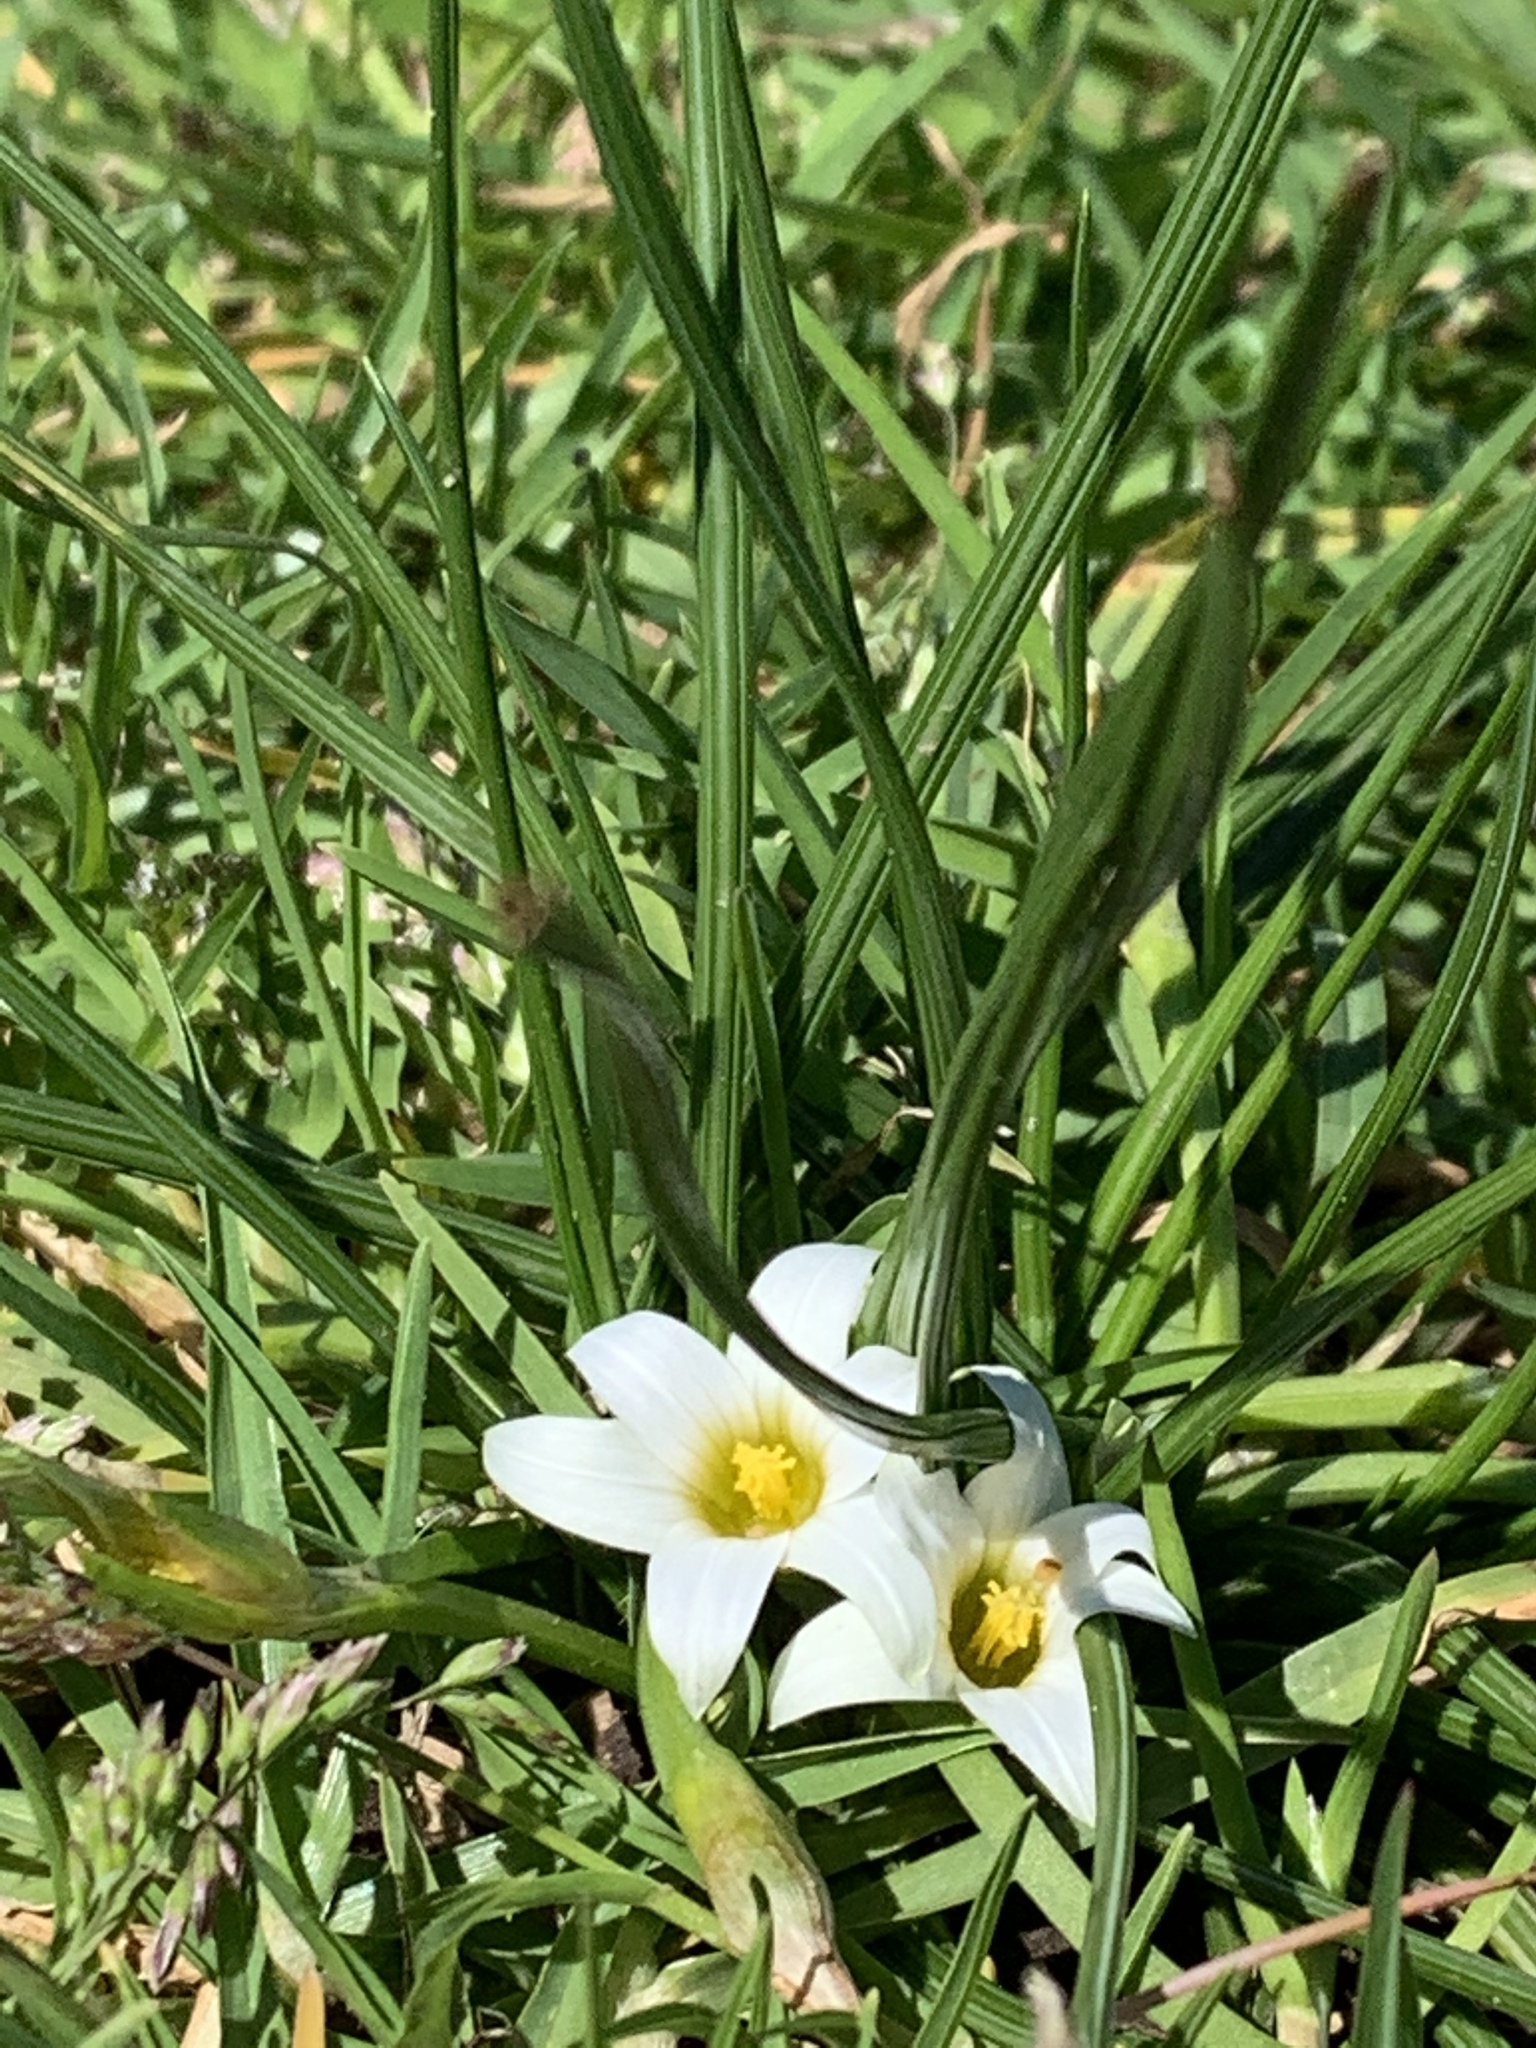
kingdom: Plantae
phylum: Tracheophyta
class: Liliopsida
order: Asparagales
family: Iridaceae
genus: Romulea
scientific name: Romulea flava
